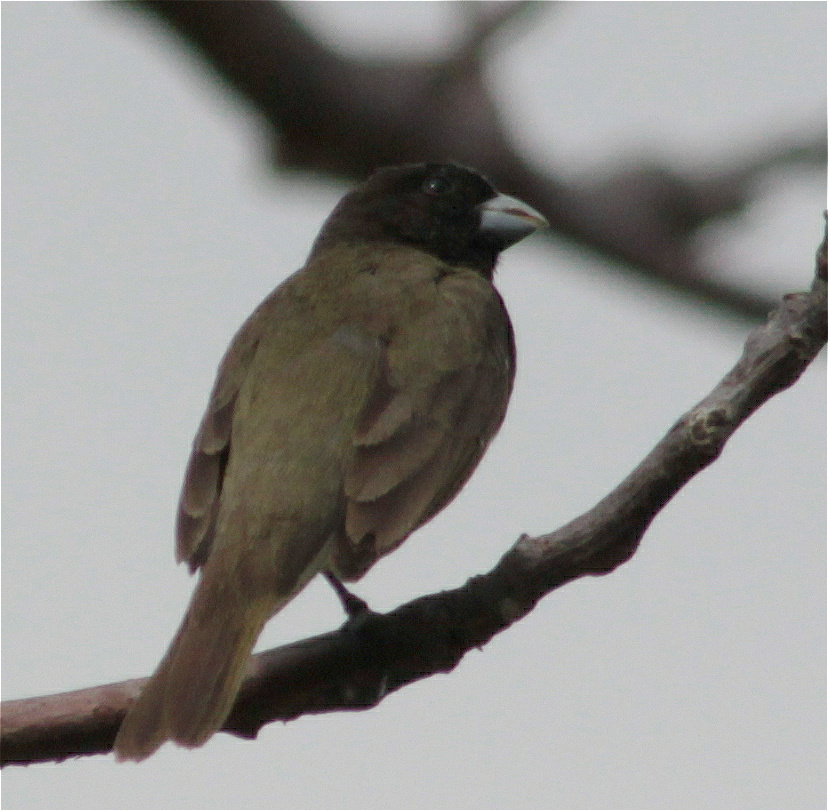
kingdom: Animalia
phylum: Chordata
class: Aves
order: Passeriformes
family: Thraupidae
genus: Sporophila
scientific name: Sporophila nigricollis
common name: Yellow-bellied seedeater
